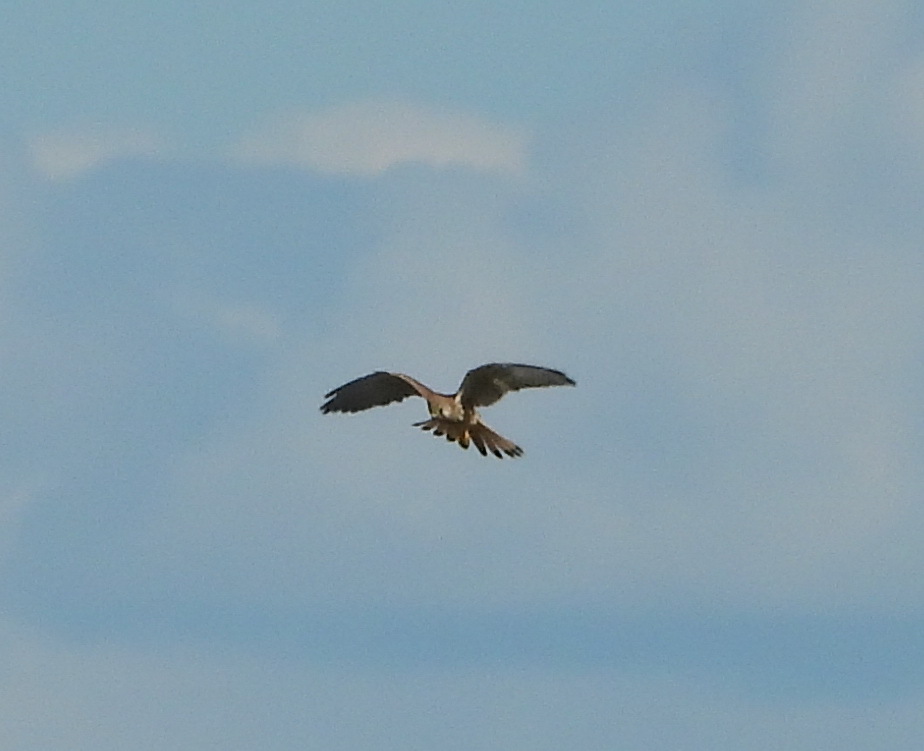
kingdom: Animalia
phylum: Chordata
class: Aves
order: Falconiformes
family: Falconidae
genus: Falco
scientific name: Falco tinnunculus
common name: Common kestrel
